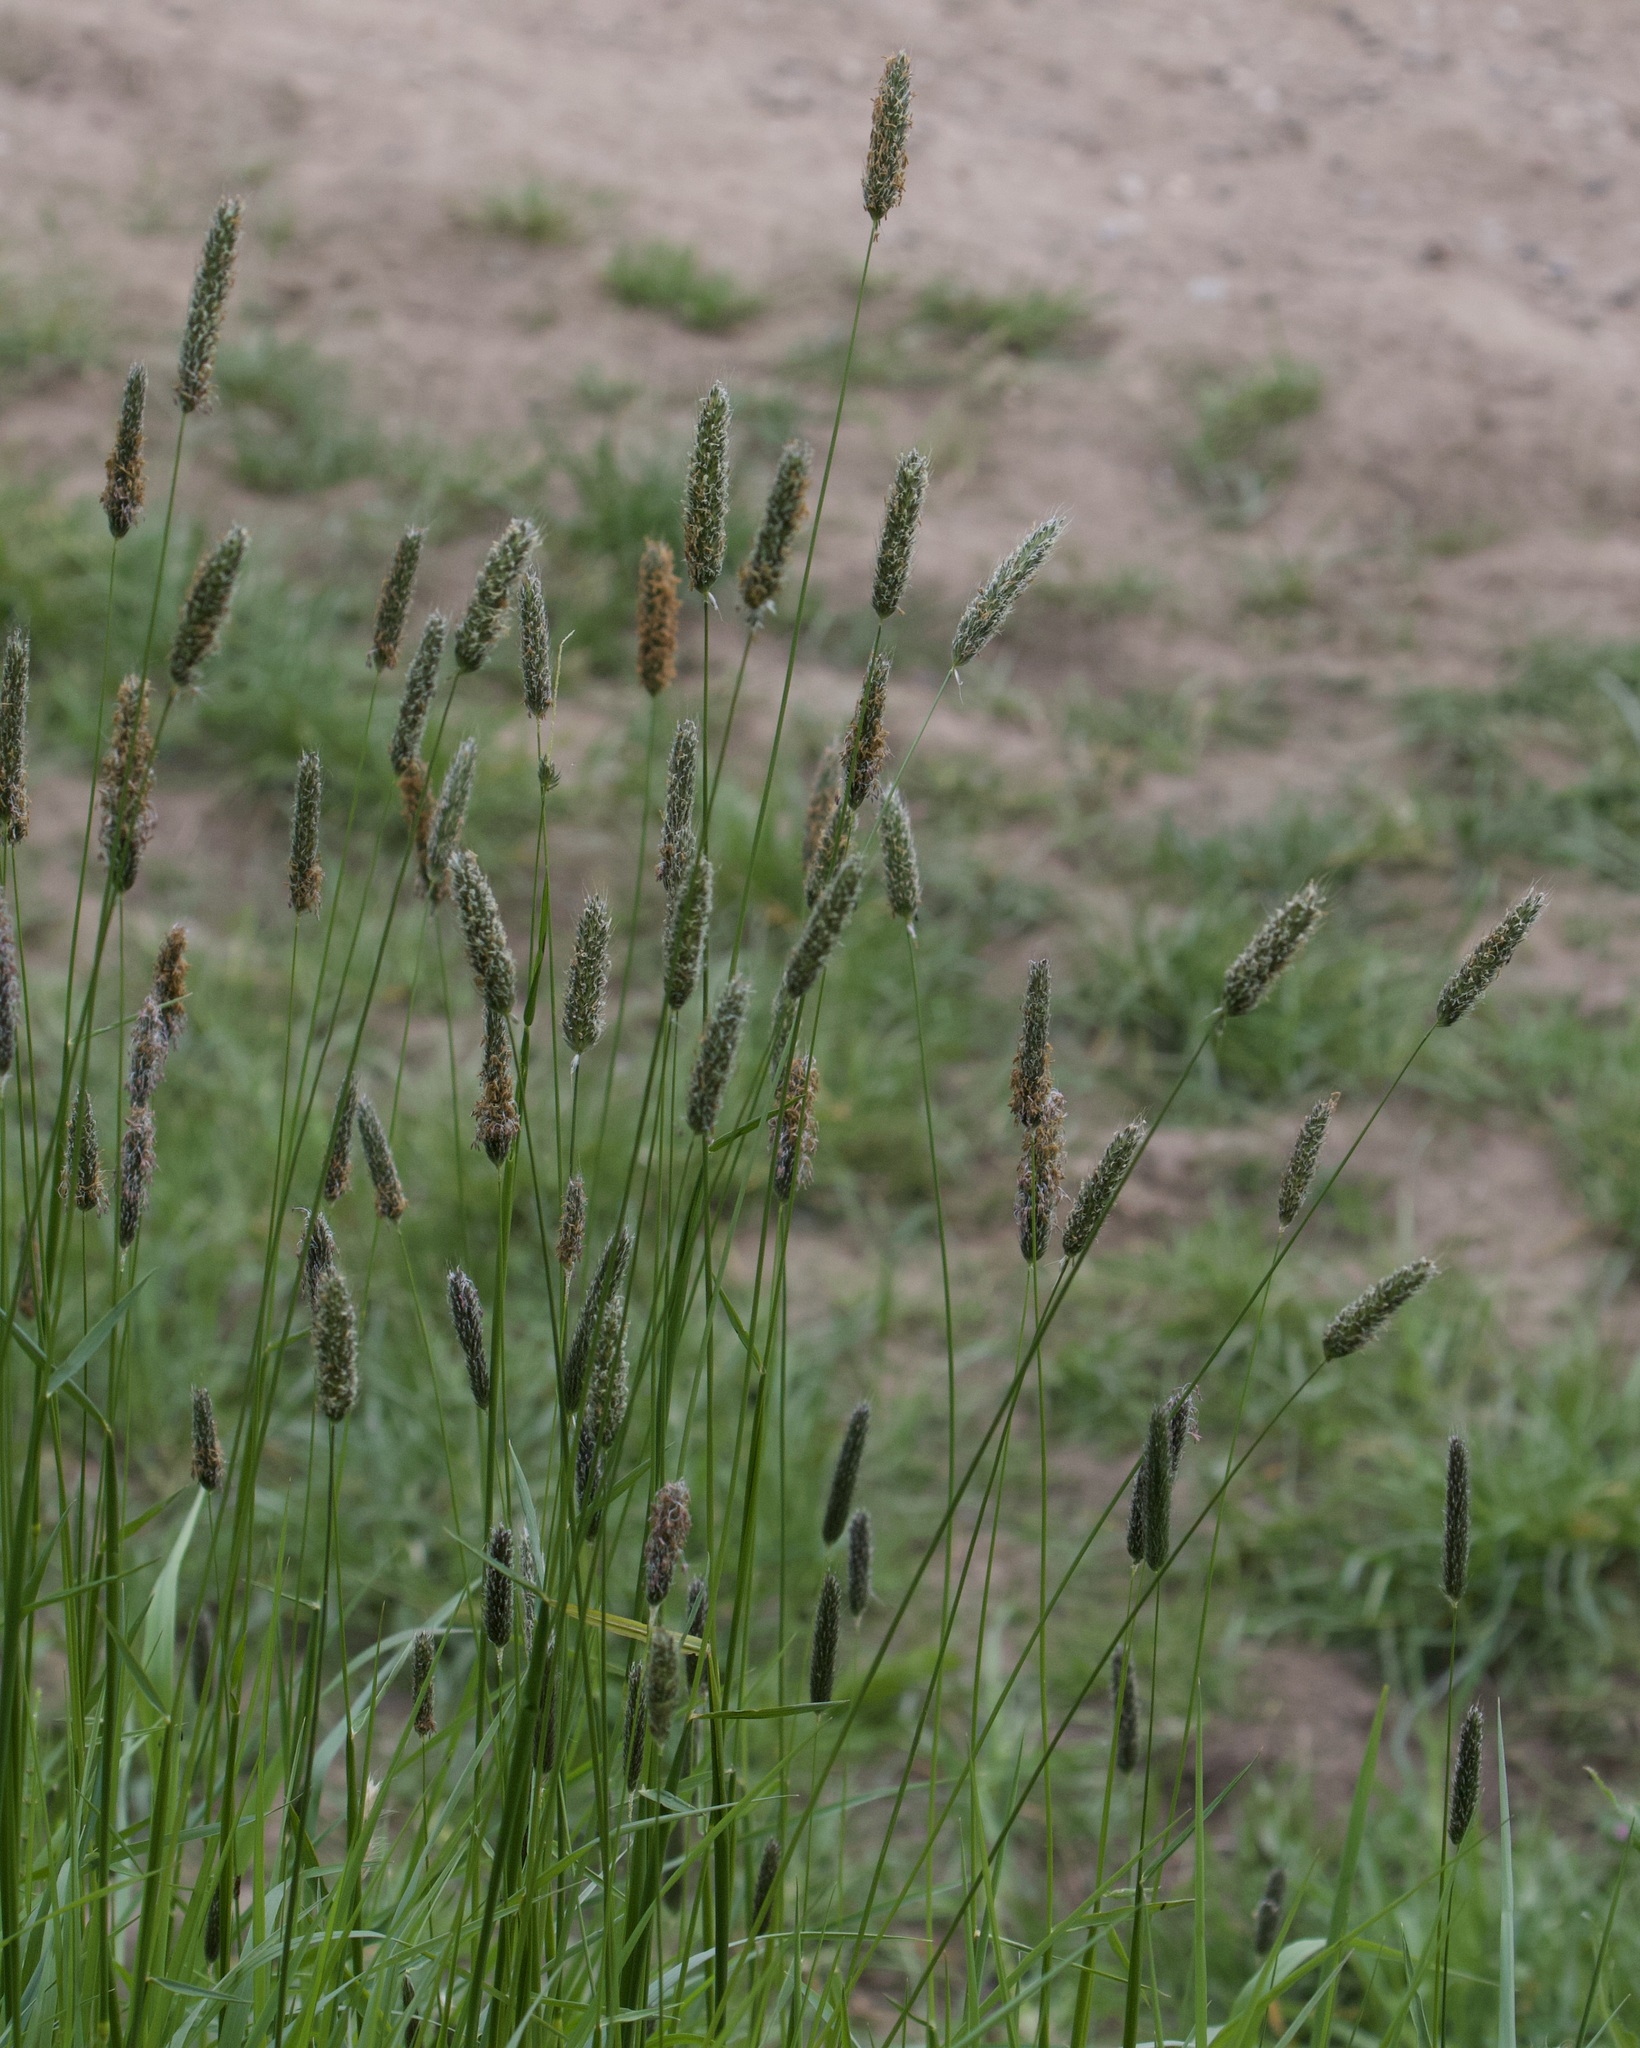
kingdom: Plantae
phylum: Tracheophyta
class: Liliopsida
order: Poales
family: Poaceae
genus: Alopecurus
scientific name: Alopecurus pratensis
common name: Meadow foxtail
